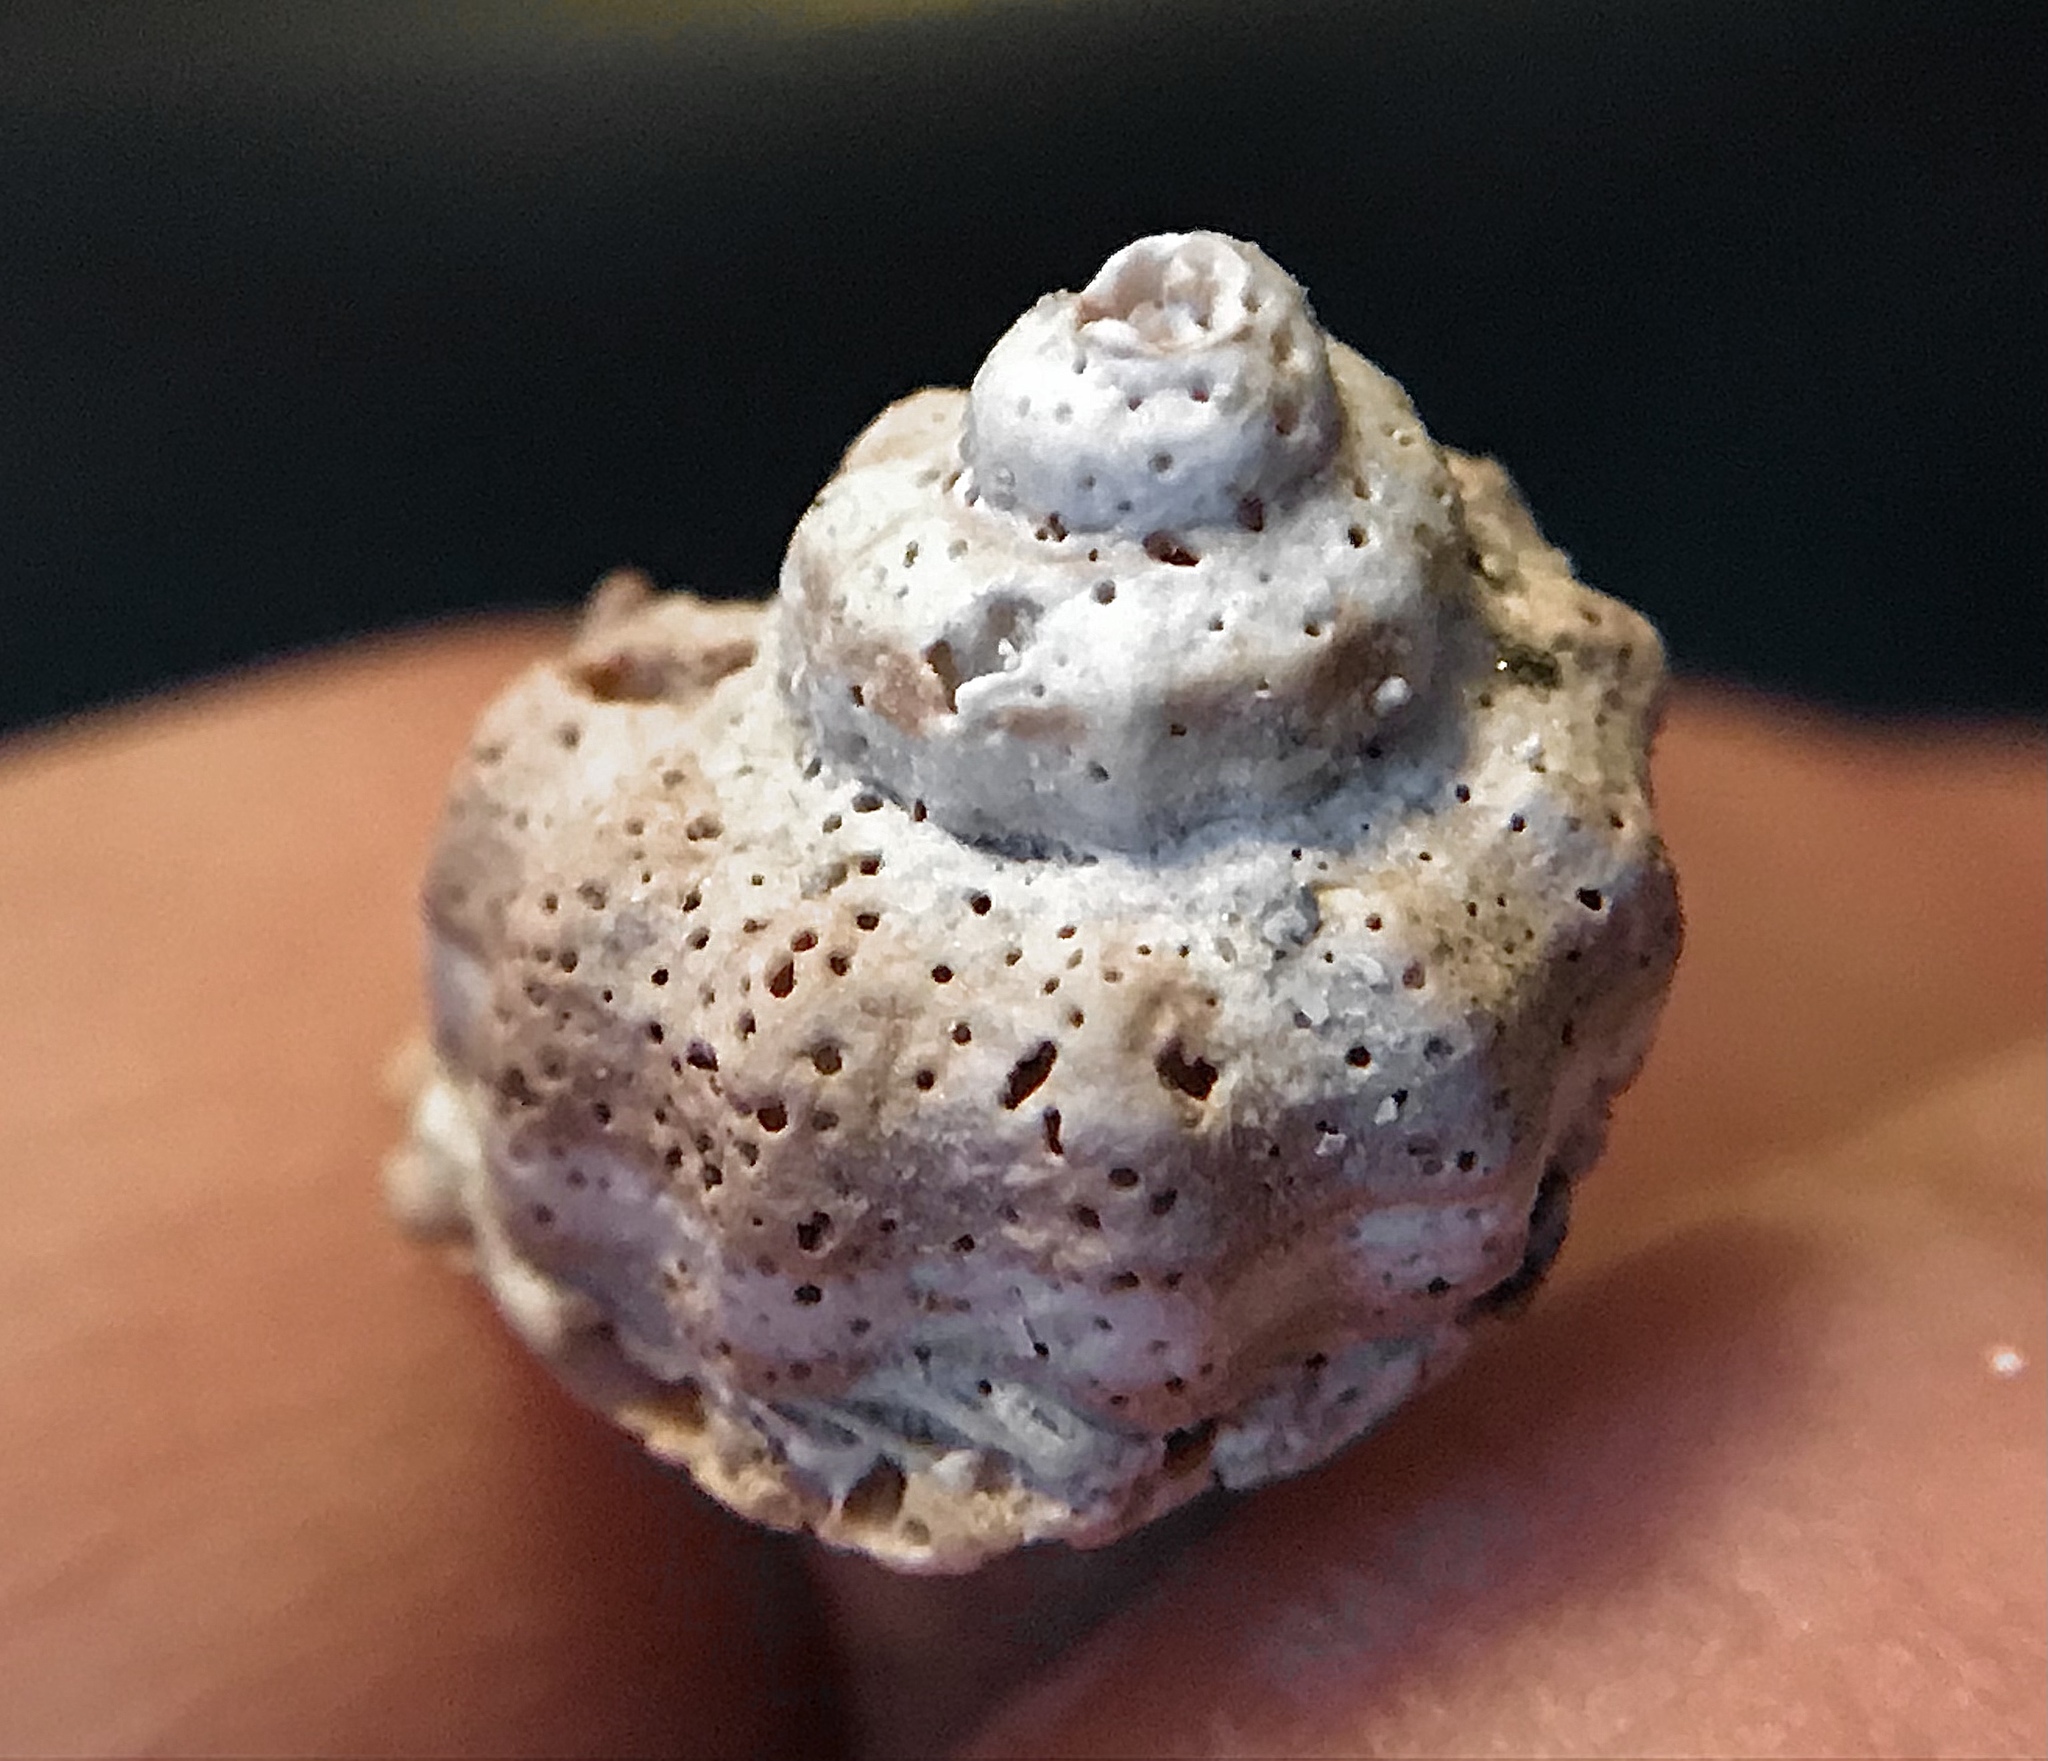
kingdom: Animalia
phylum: Mollusca
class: Gastropoda
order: Neogastropoda
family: Melongenidae
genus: Melongena
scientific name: Melongena corona
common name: American crown conch
